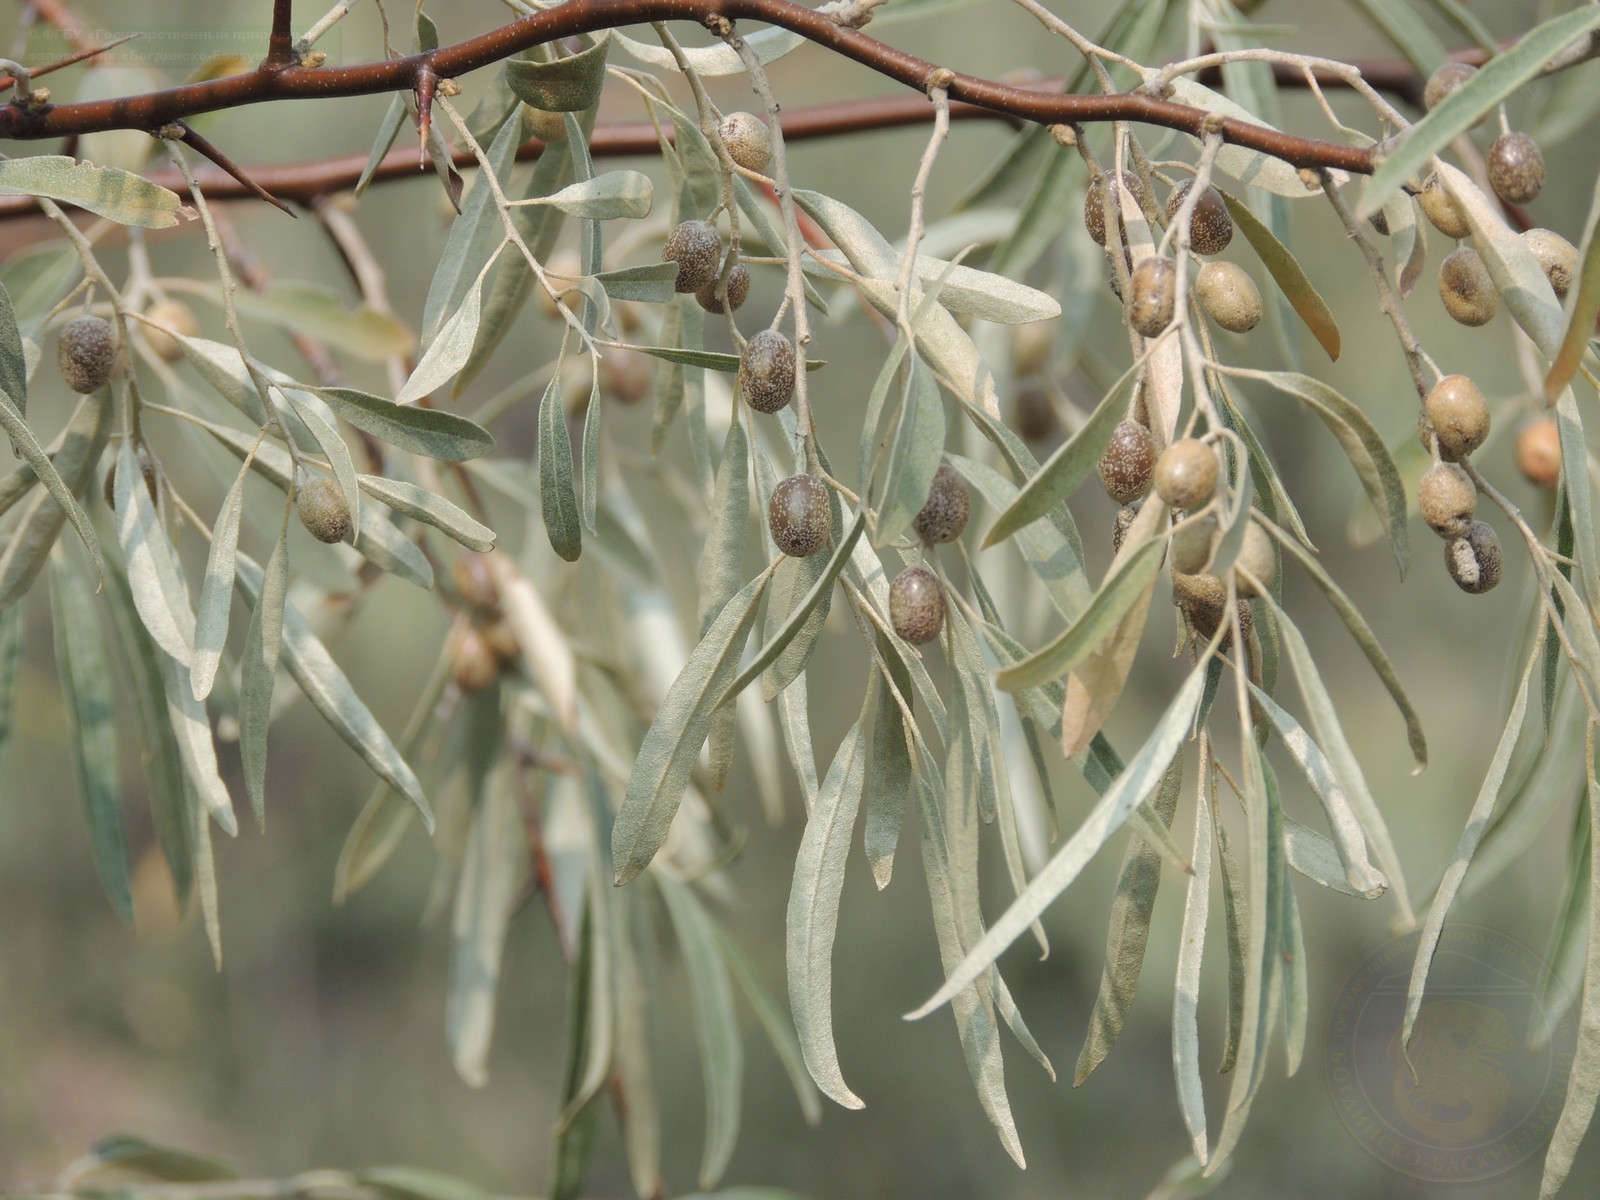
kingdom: Plantae
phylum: Tracheophyta
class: Magnoliopsida
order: Rosales
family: Elaeagnaceae
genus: Elaeagnus
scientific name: Elaeagnus angustifolia
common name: Russian olive
